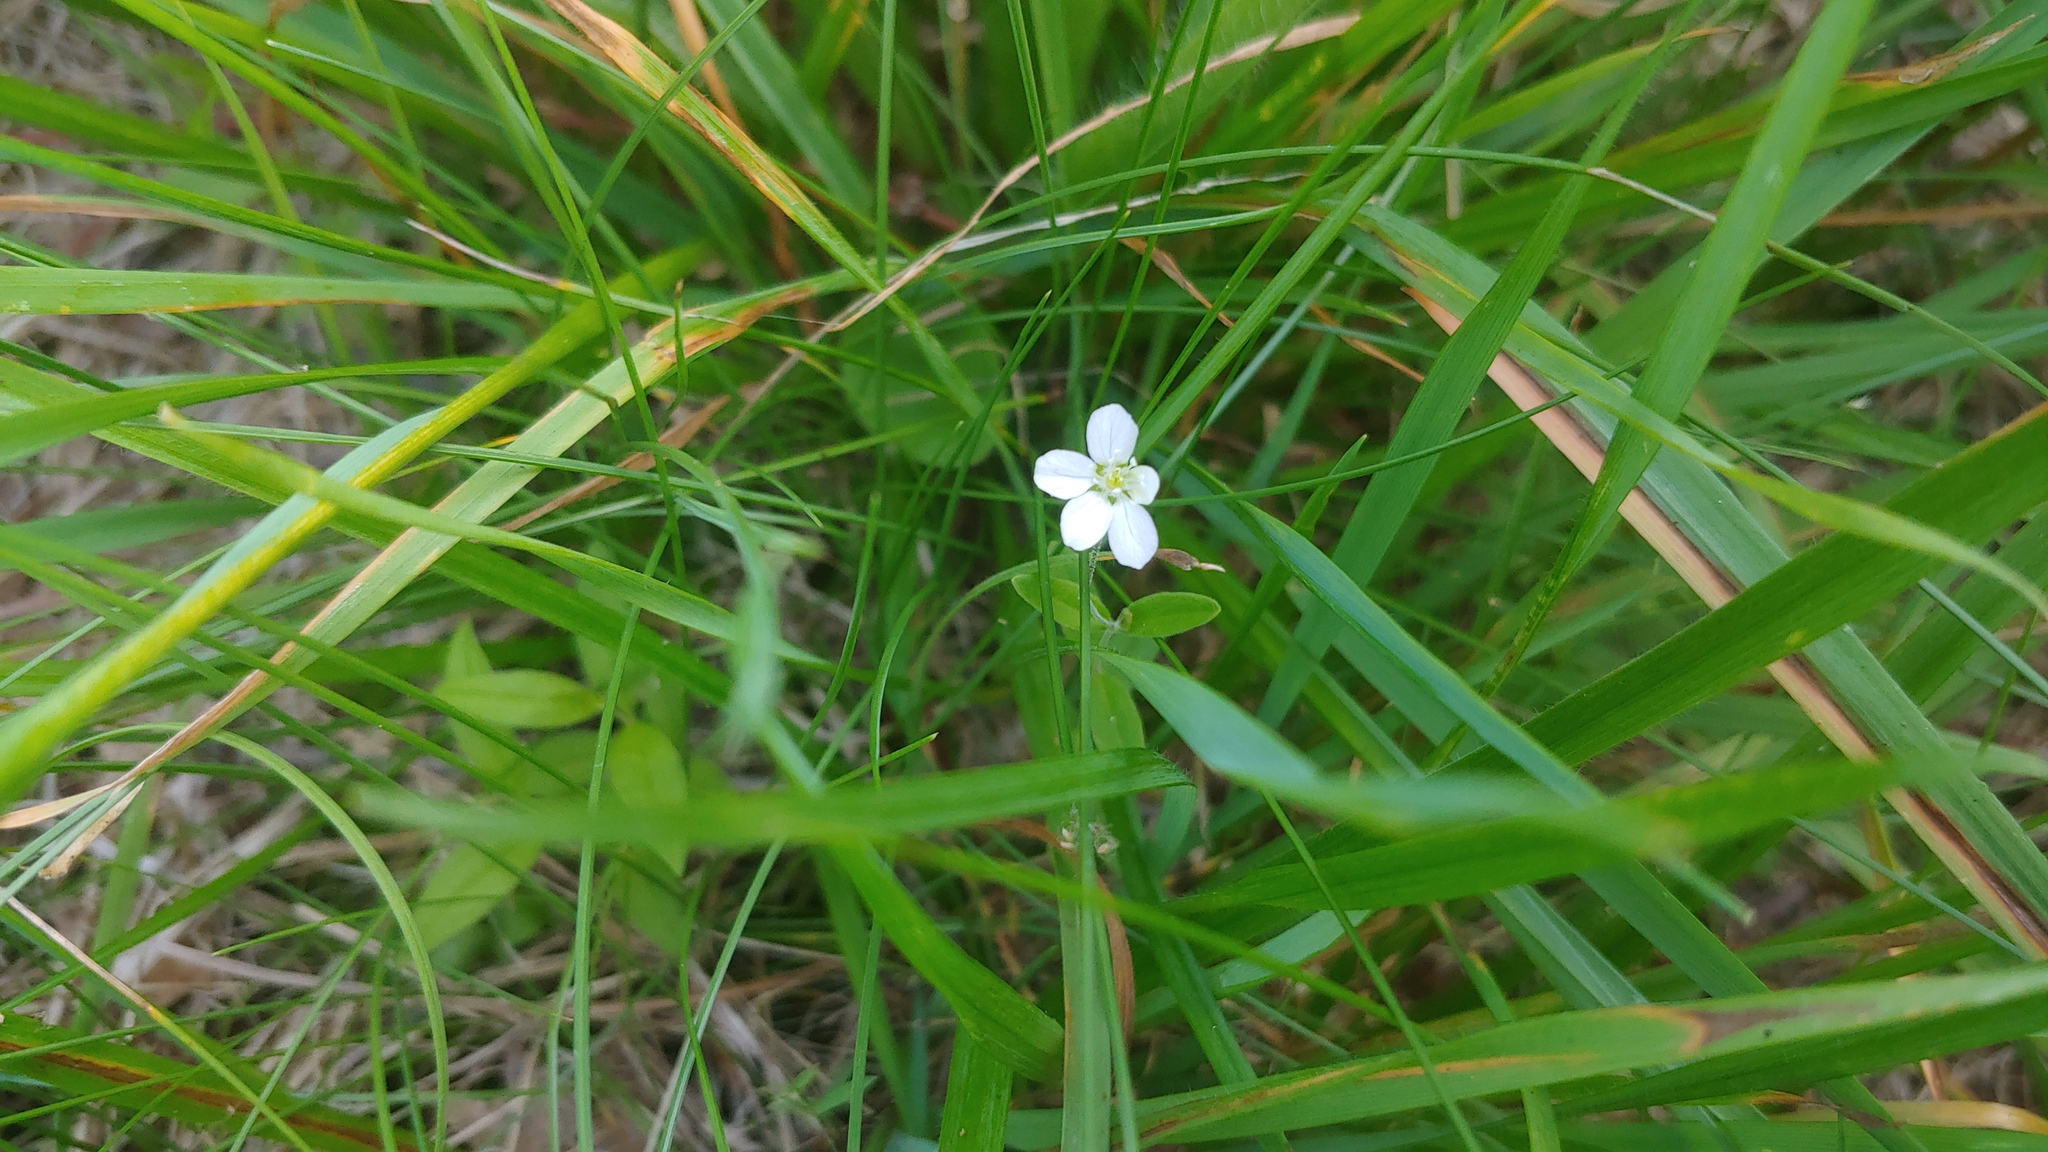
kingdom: Plantae
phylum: Tracheophyta
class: Magnoliopsida
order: Caryophyllales
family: Caryophyllaceae
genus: Moehringia
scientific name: Moehringia lateriflora
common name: Blunt-leaved sandwort
